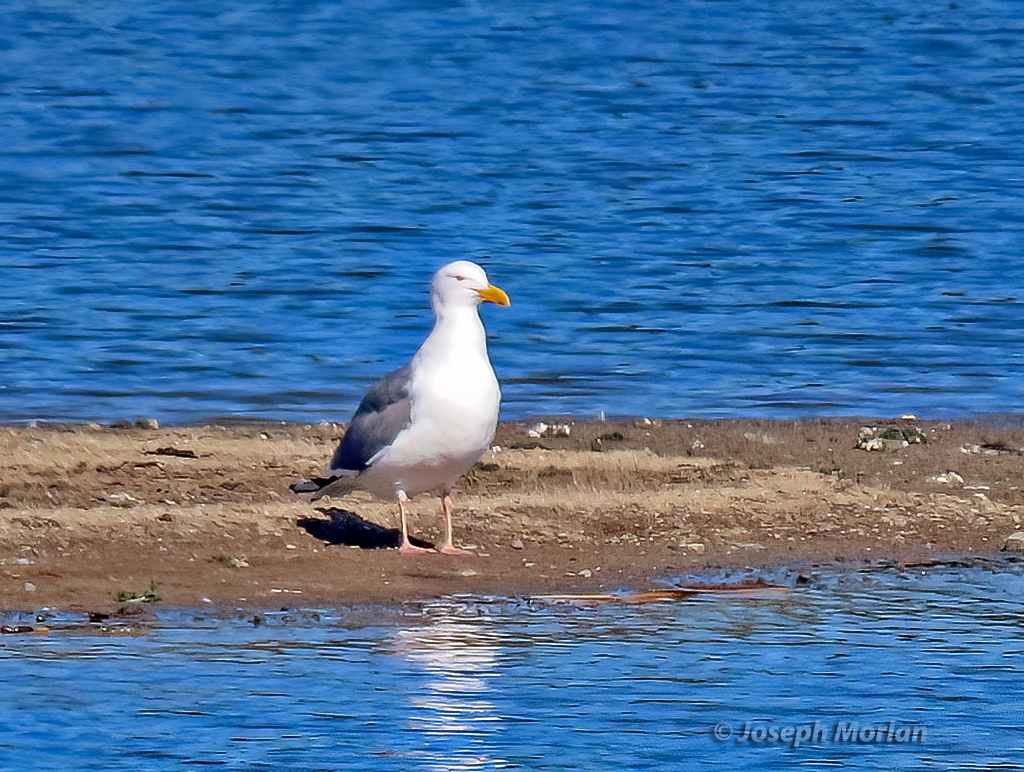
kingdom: Animalia
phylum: Chordata
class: Aves
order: Charadriiformes
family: Laridae
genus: Larus
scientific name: Larus occidentalis
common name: Western gull
